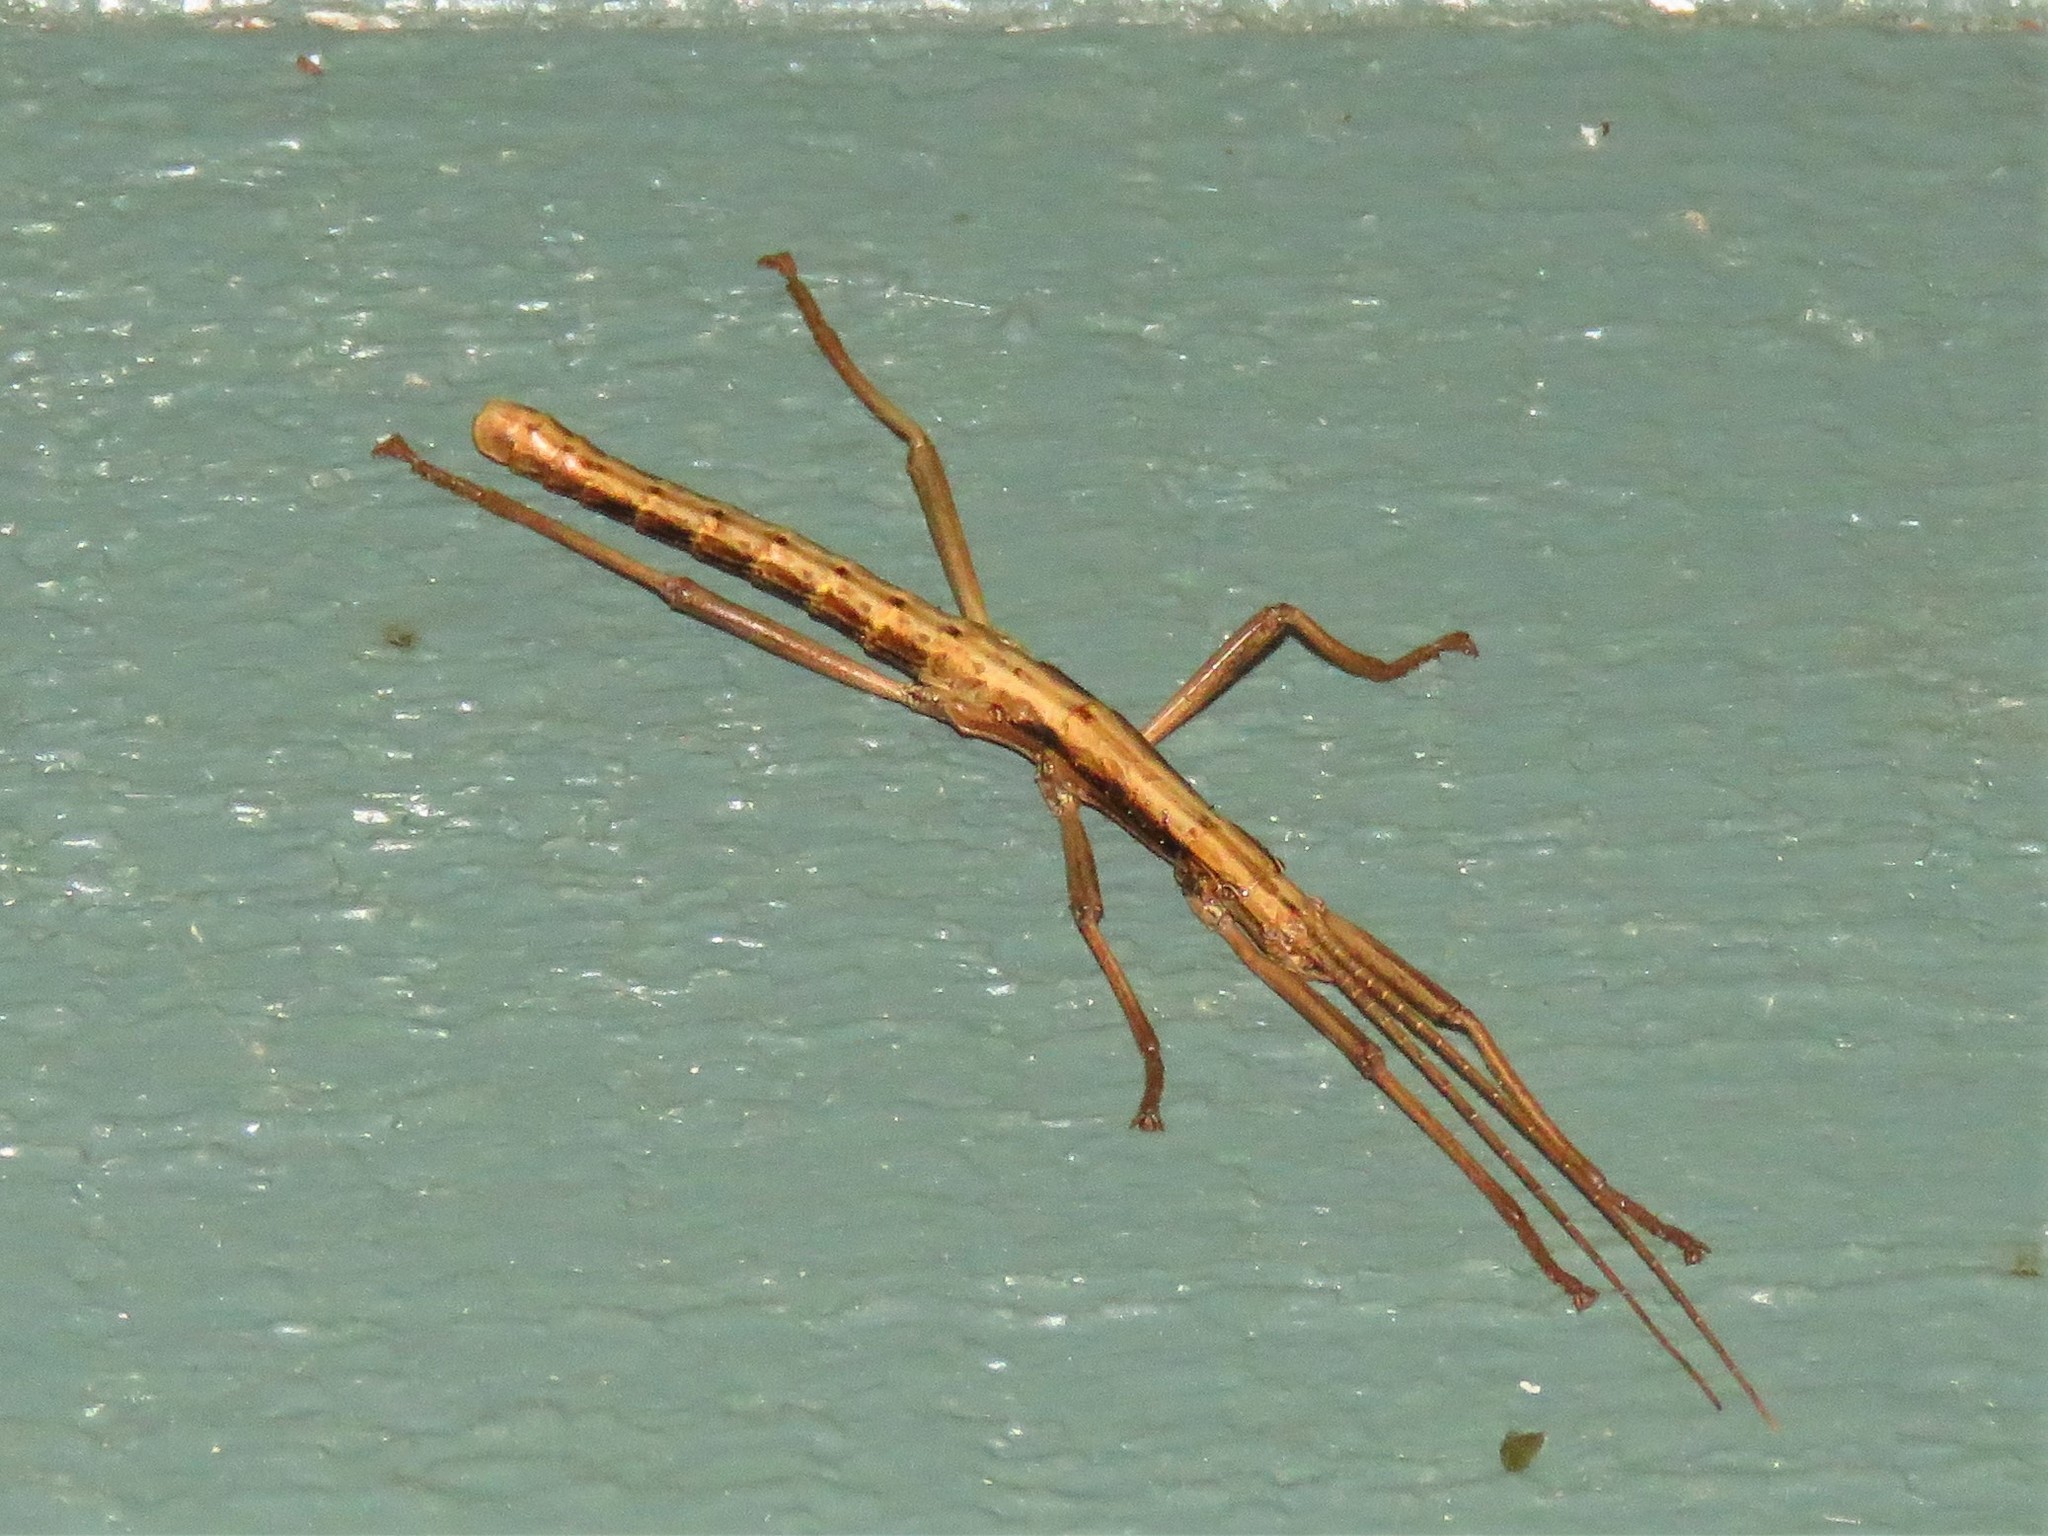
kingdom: Animalia
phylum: Arthropoda
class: Insecta
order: Phasmida
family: Pseudophasmatidae
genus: Anisomorpha
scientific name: Anisomorpha buprestoides
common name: Florida stick insect
